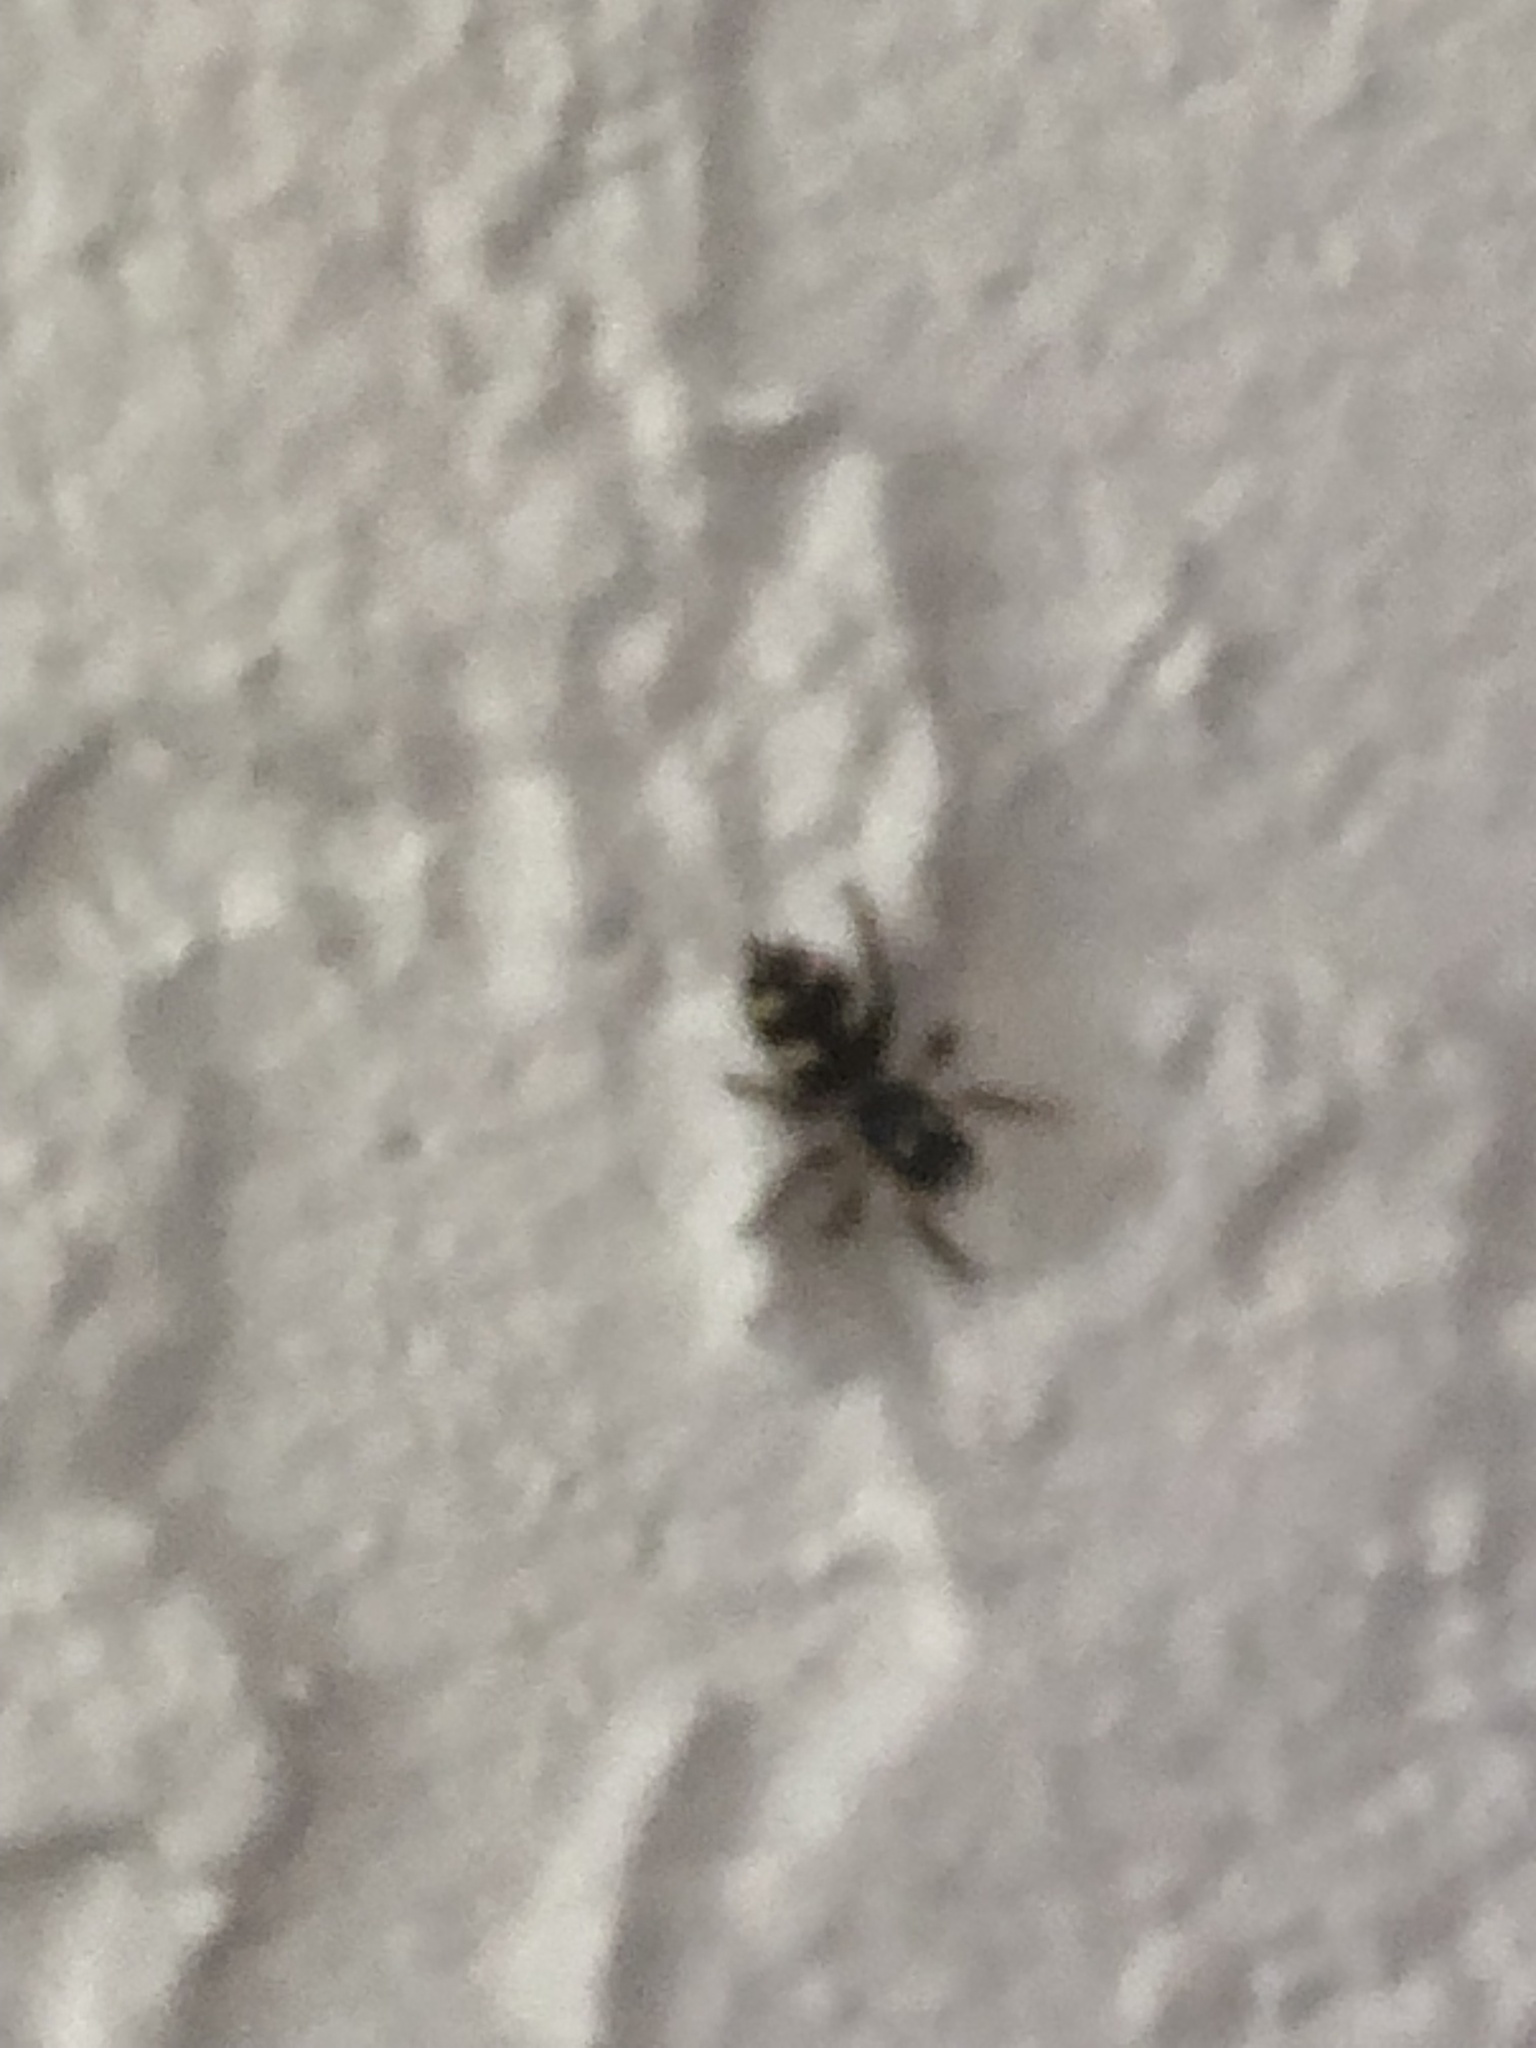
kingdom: Animalia
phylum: Arthropoda
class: Arachnida
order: Araneae
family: Salticidae
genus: Salticus
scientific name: Salticus scenicus
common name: Zebra jumper
